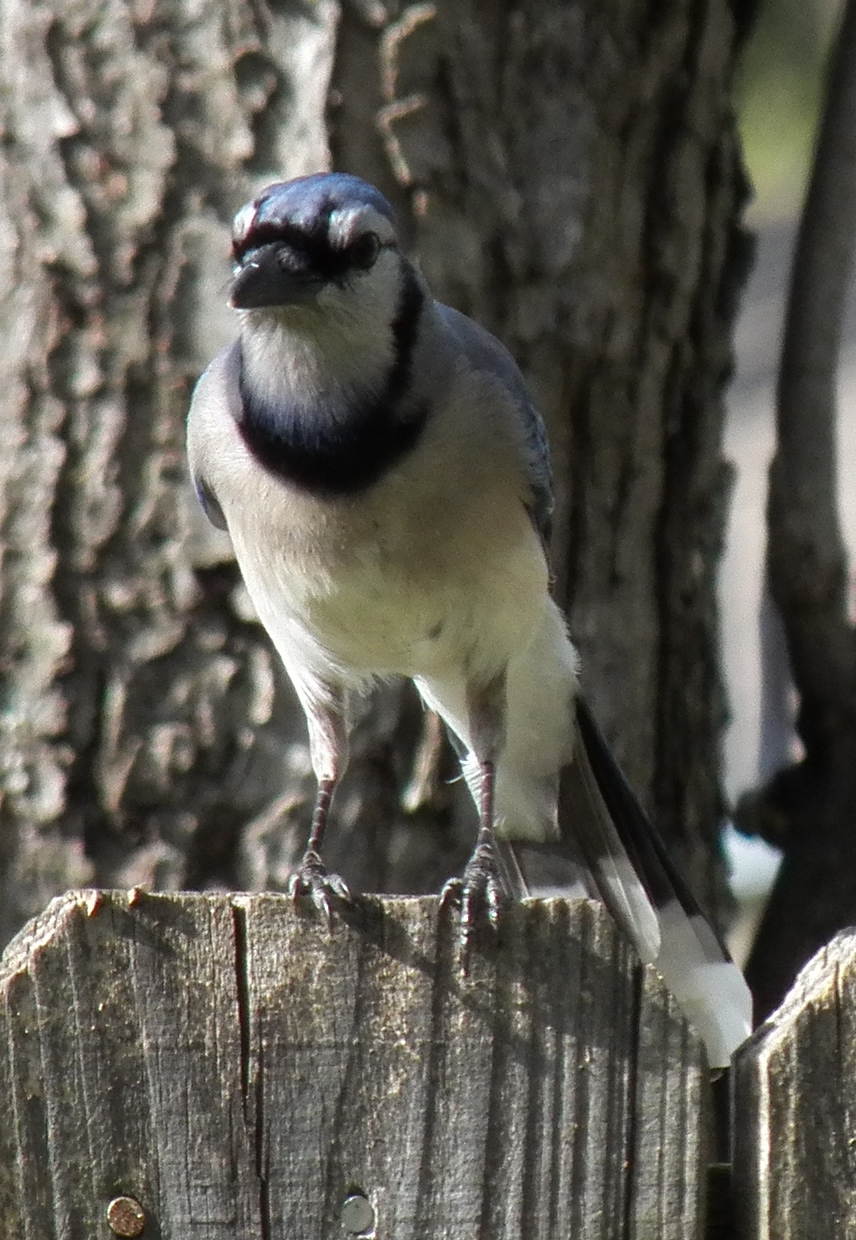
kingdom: Animalia
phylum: Chordata
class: Aves
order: Passeriformes
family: Corvidae
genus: Cyanocitta
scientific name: Cyanocitta cristata
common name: Blue jay
